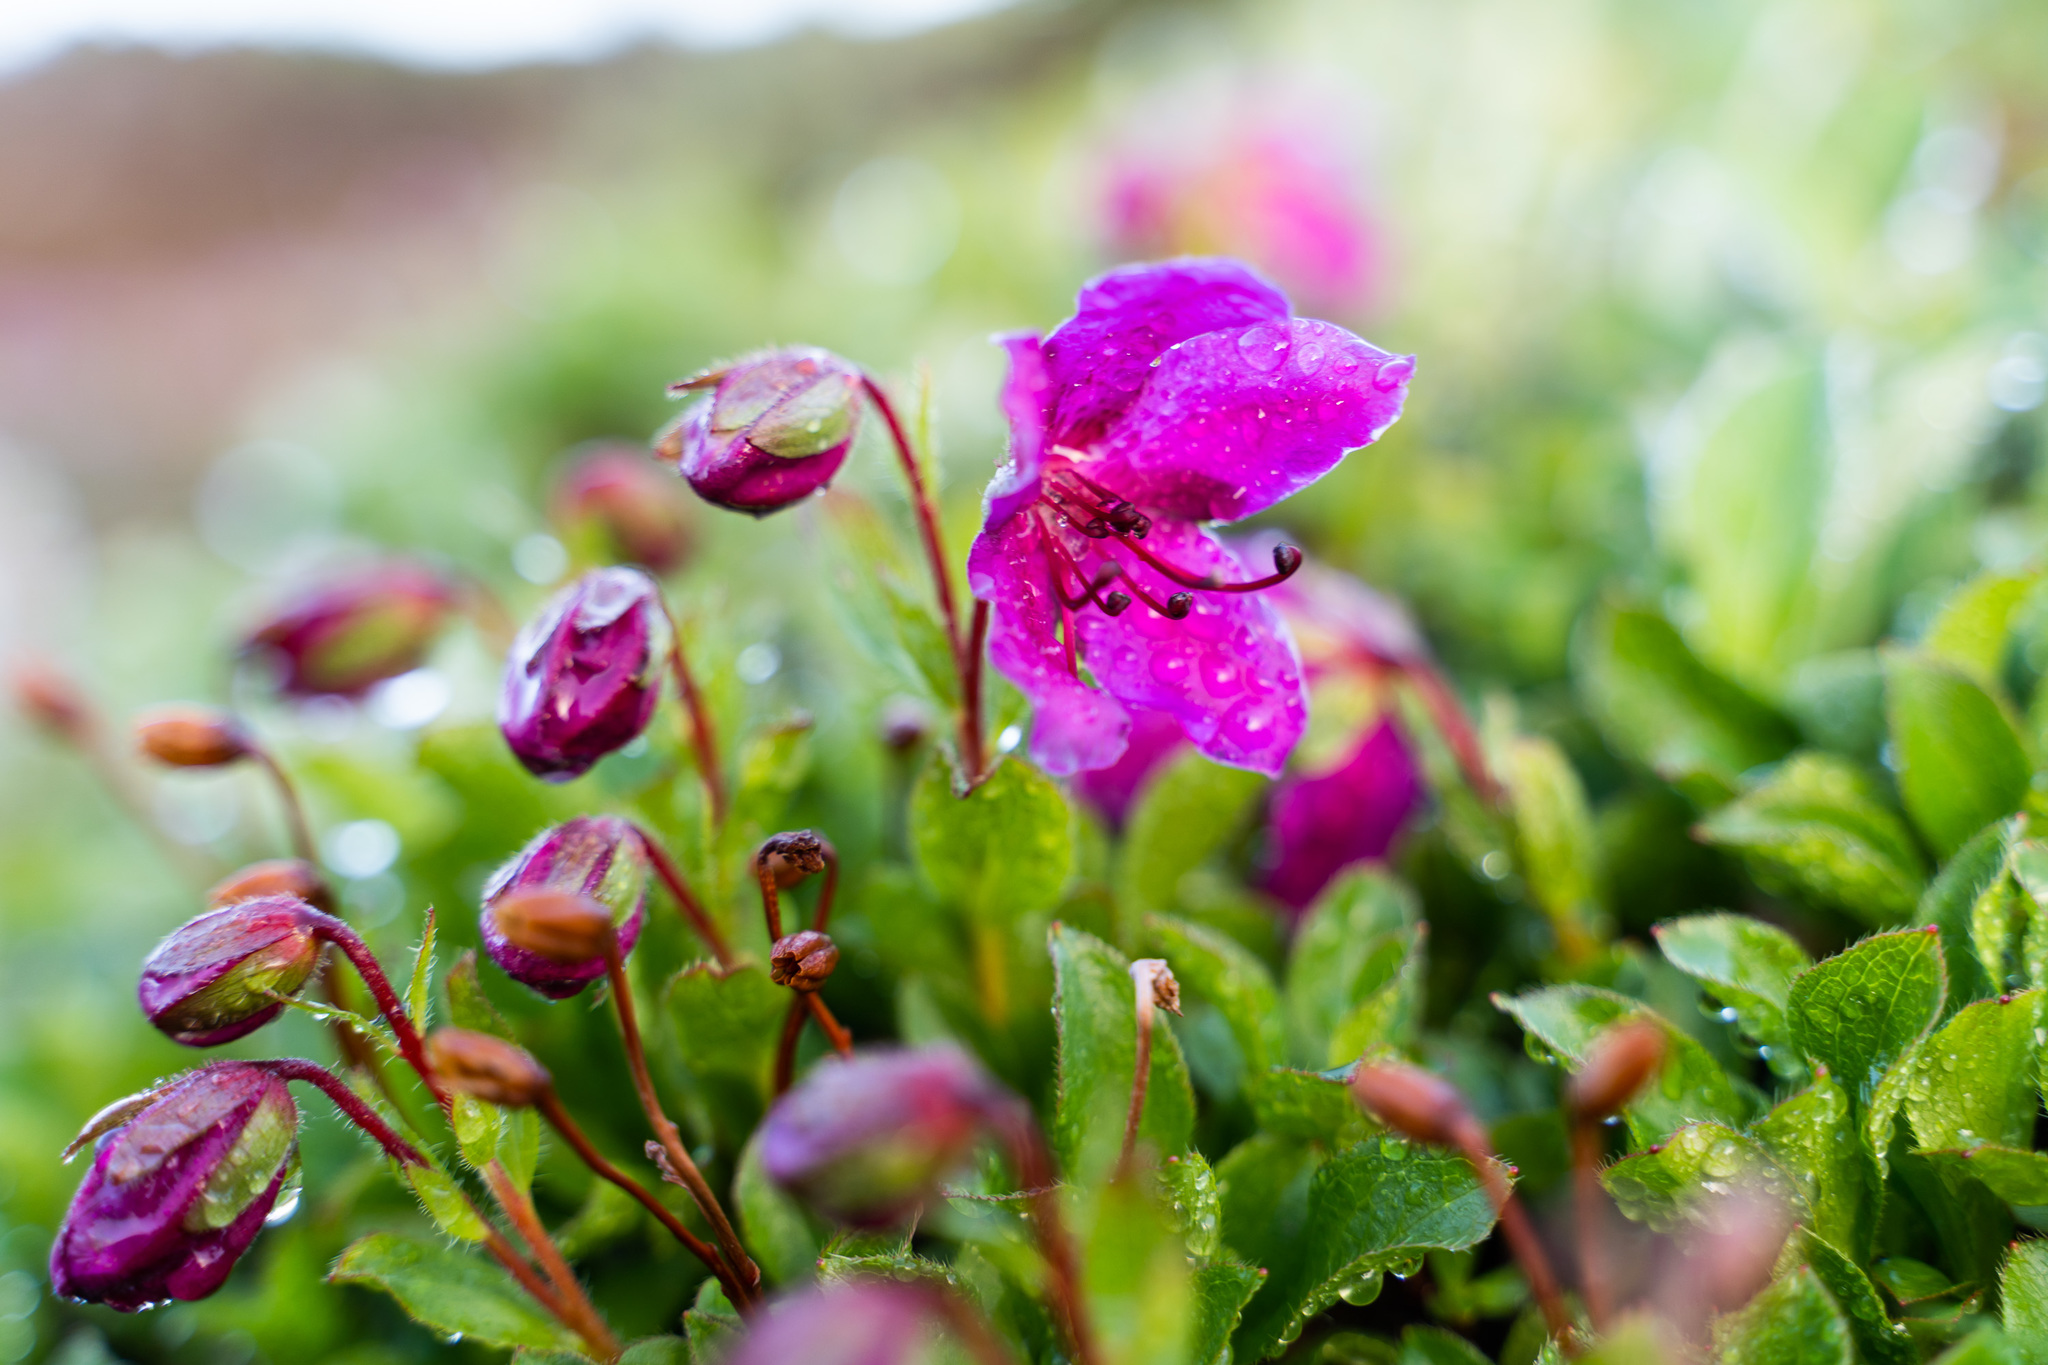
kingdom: Plantae
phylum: Tracheophyta
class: Magnoliopsida
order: Ericales
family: Ericaceae
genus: Rhododendron
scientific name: Rhododendron camtschaticum
